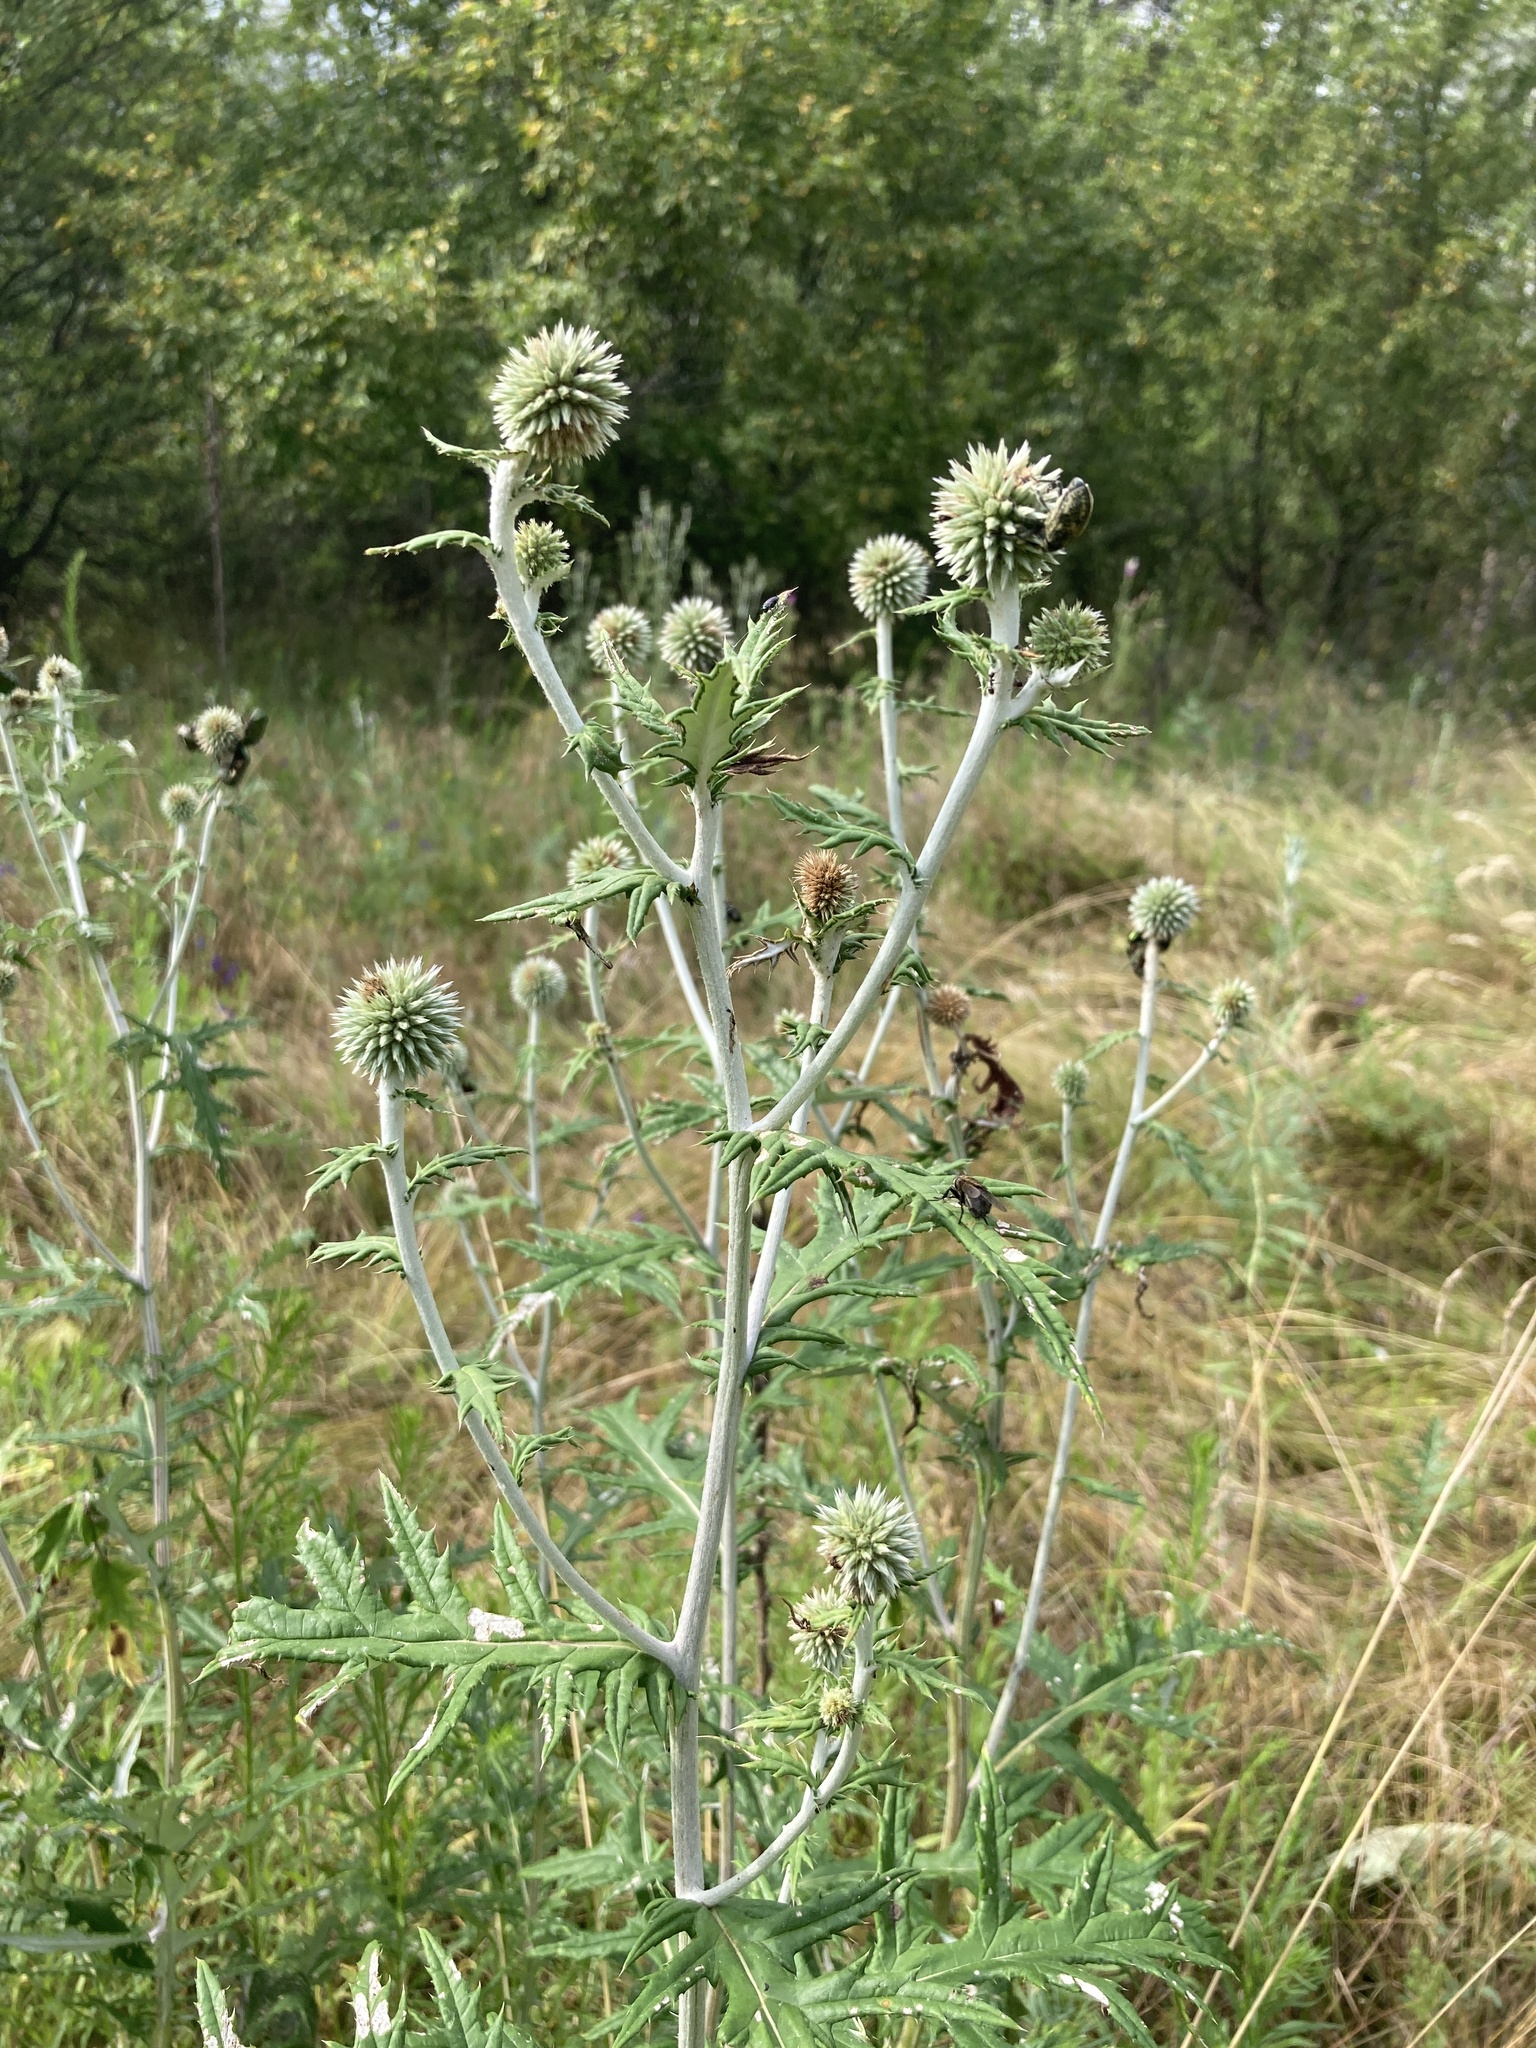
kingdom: Plantae
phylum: Tracheophyta
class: Magnoliopsida
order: Asterales
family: Asteraceae
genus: Echinops
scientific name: Echinops sphaerocephalus
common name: Glandular globe-thistle
